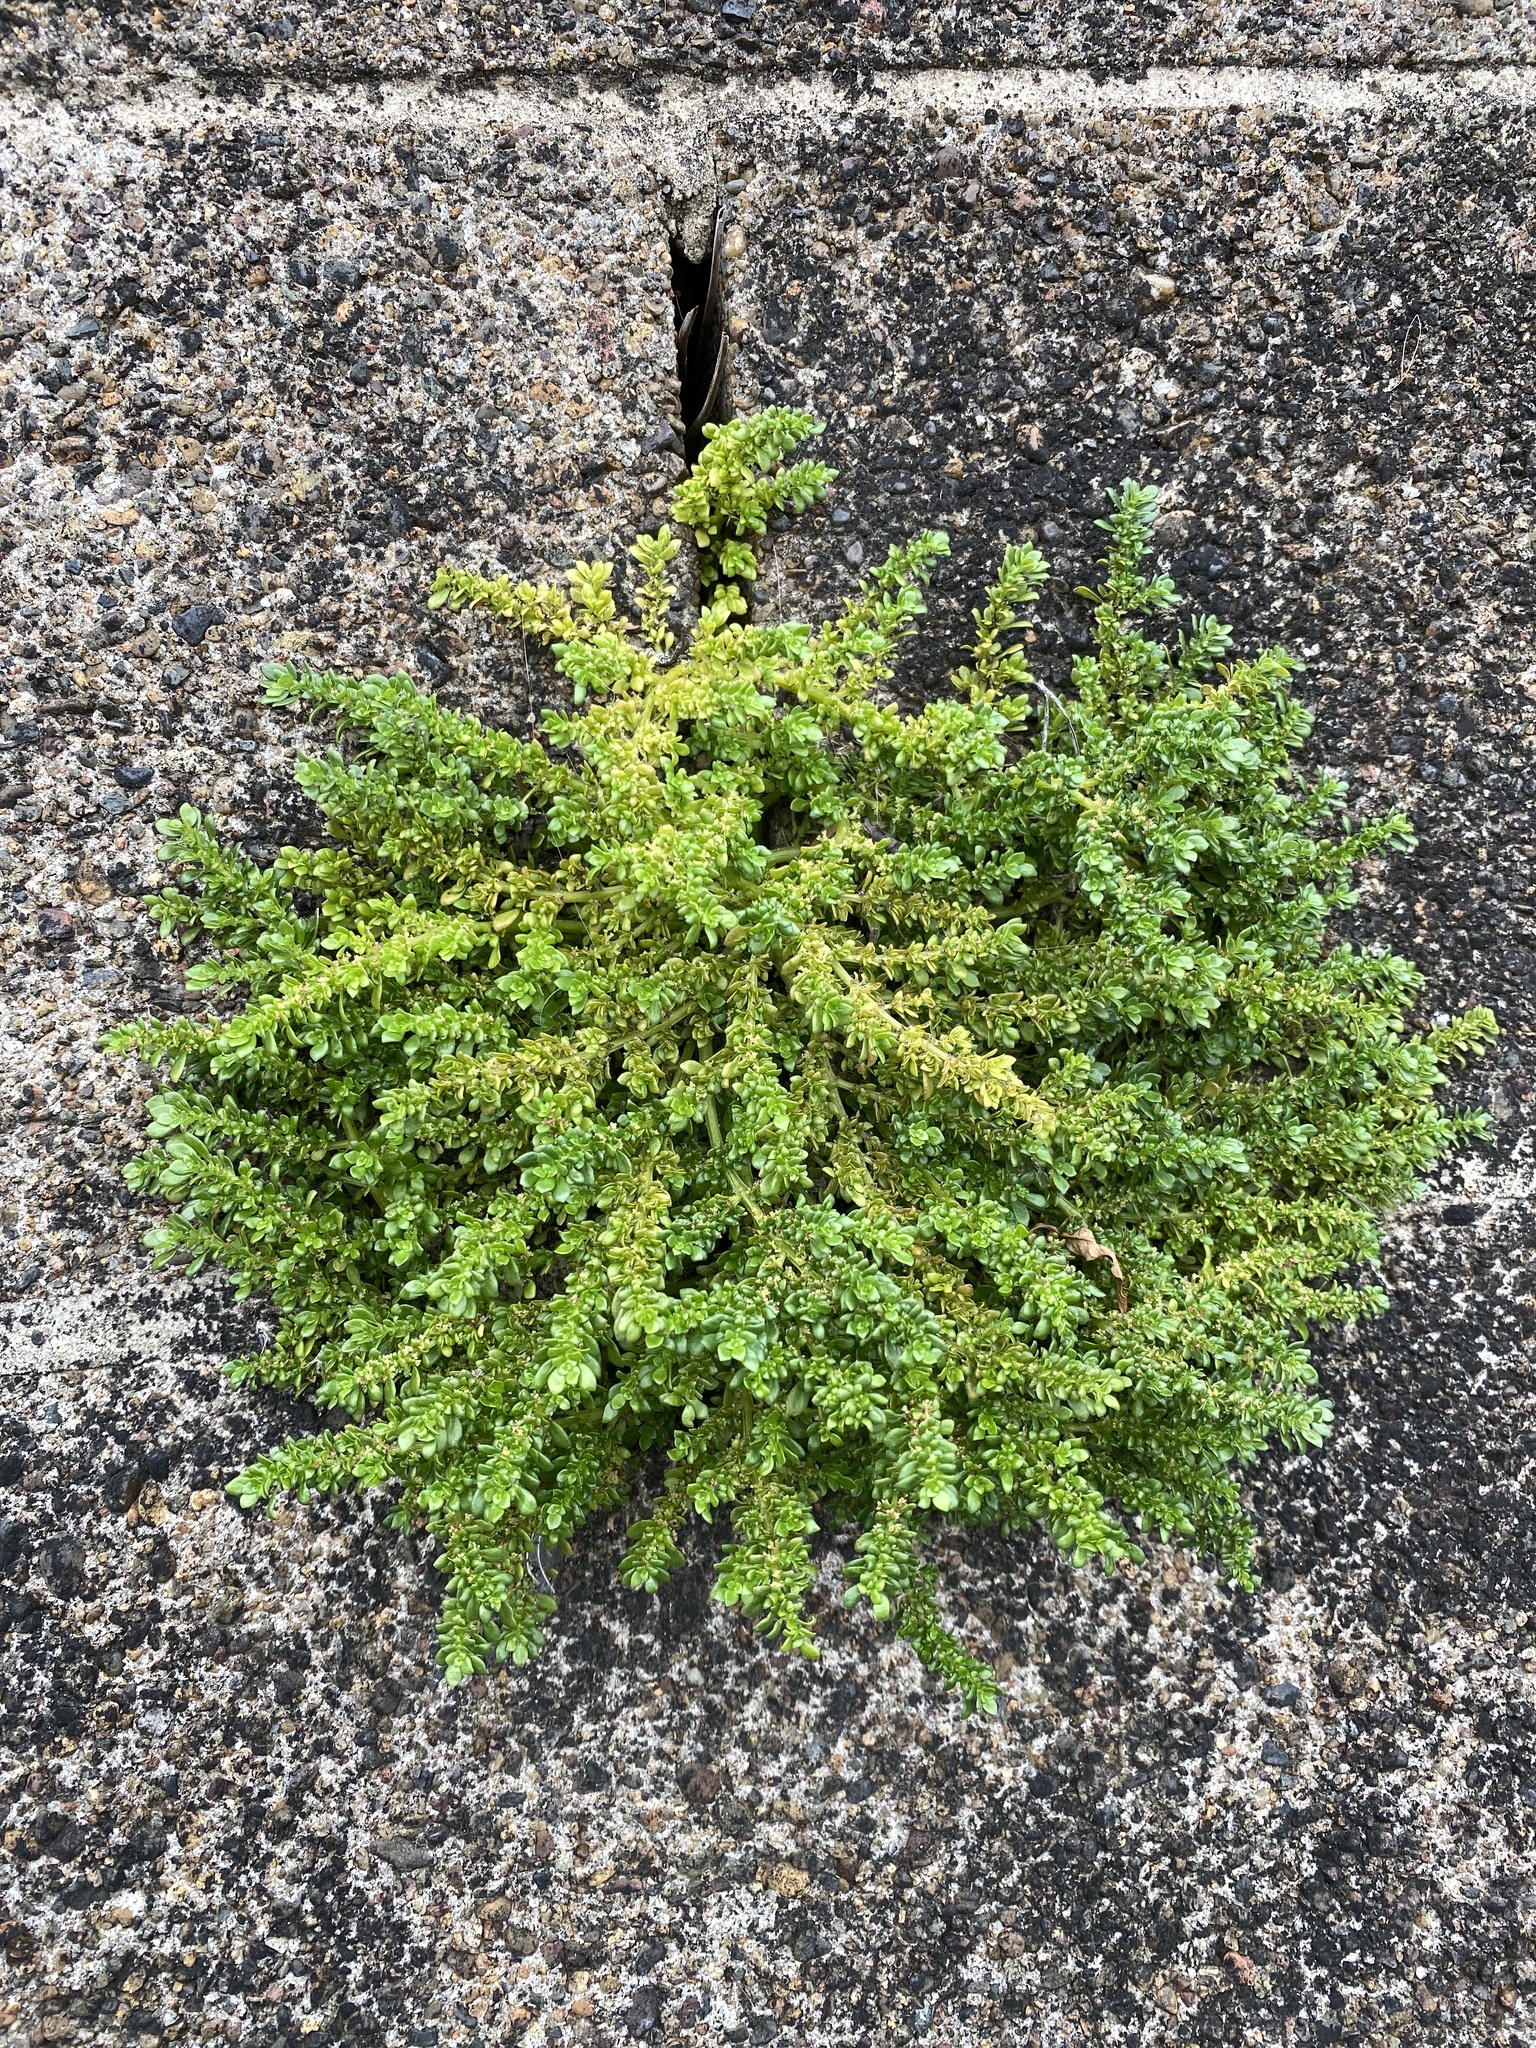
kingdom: Plantae
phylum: Tracheophyta
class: Magnoliopsida
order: Rosales
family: Urticaceae
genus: Pilea
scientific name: Pilea microphylla
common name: Artillery-plant
